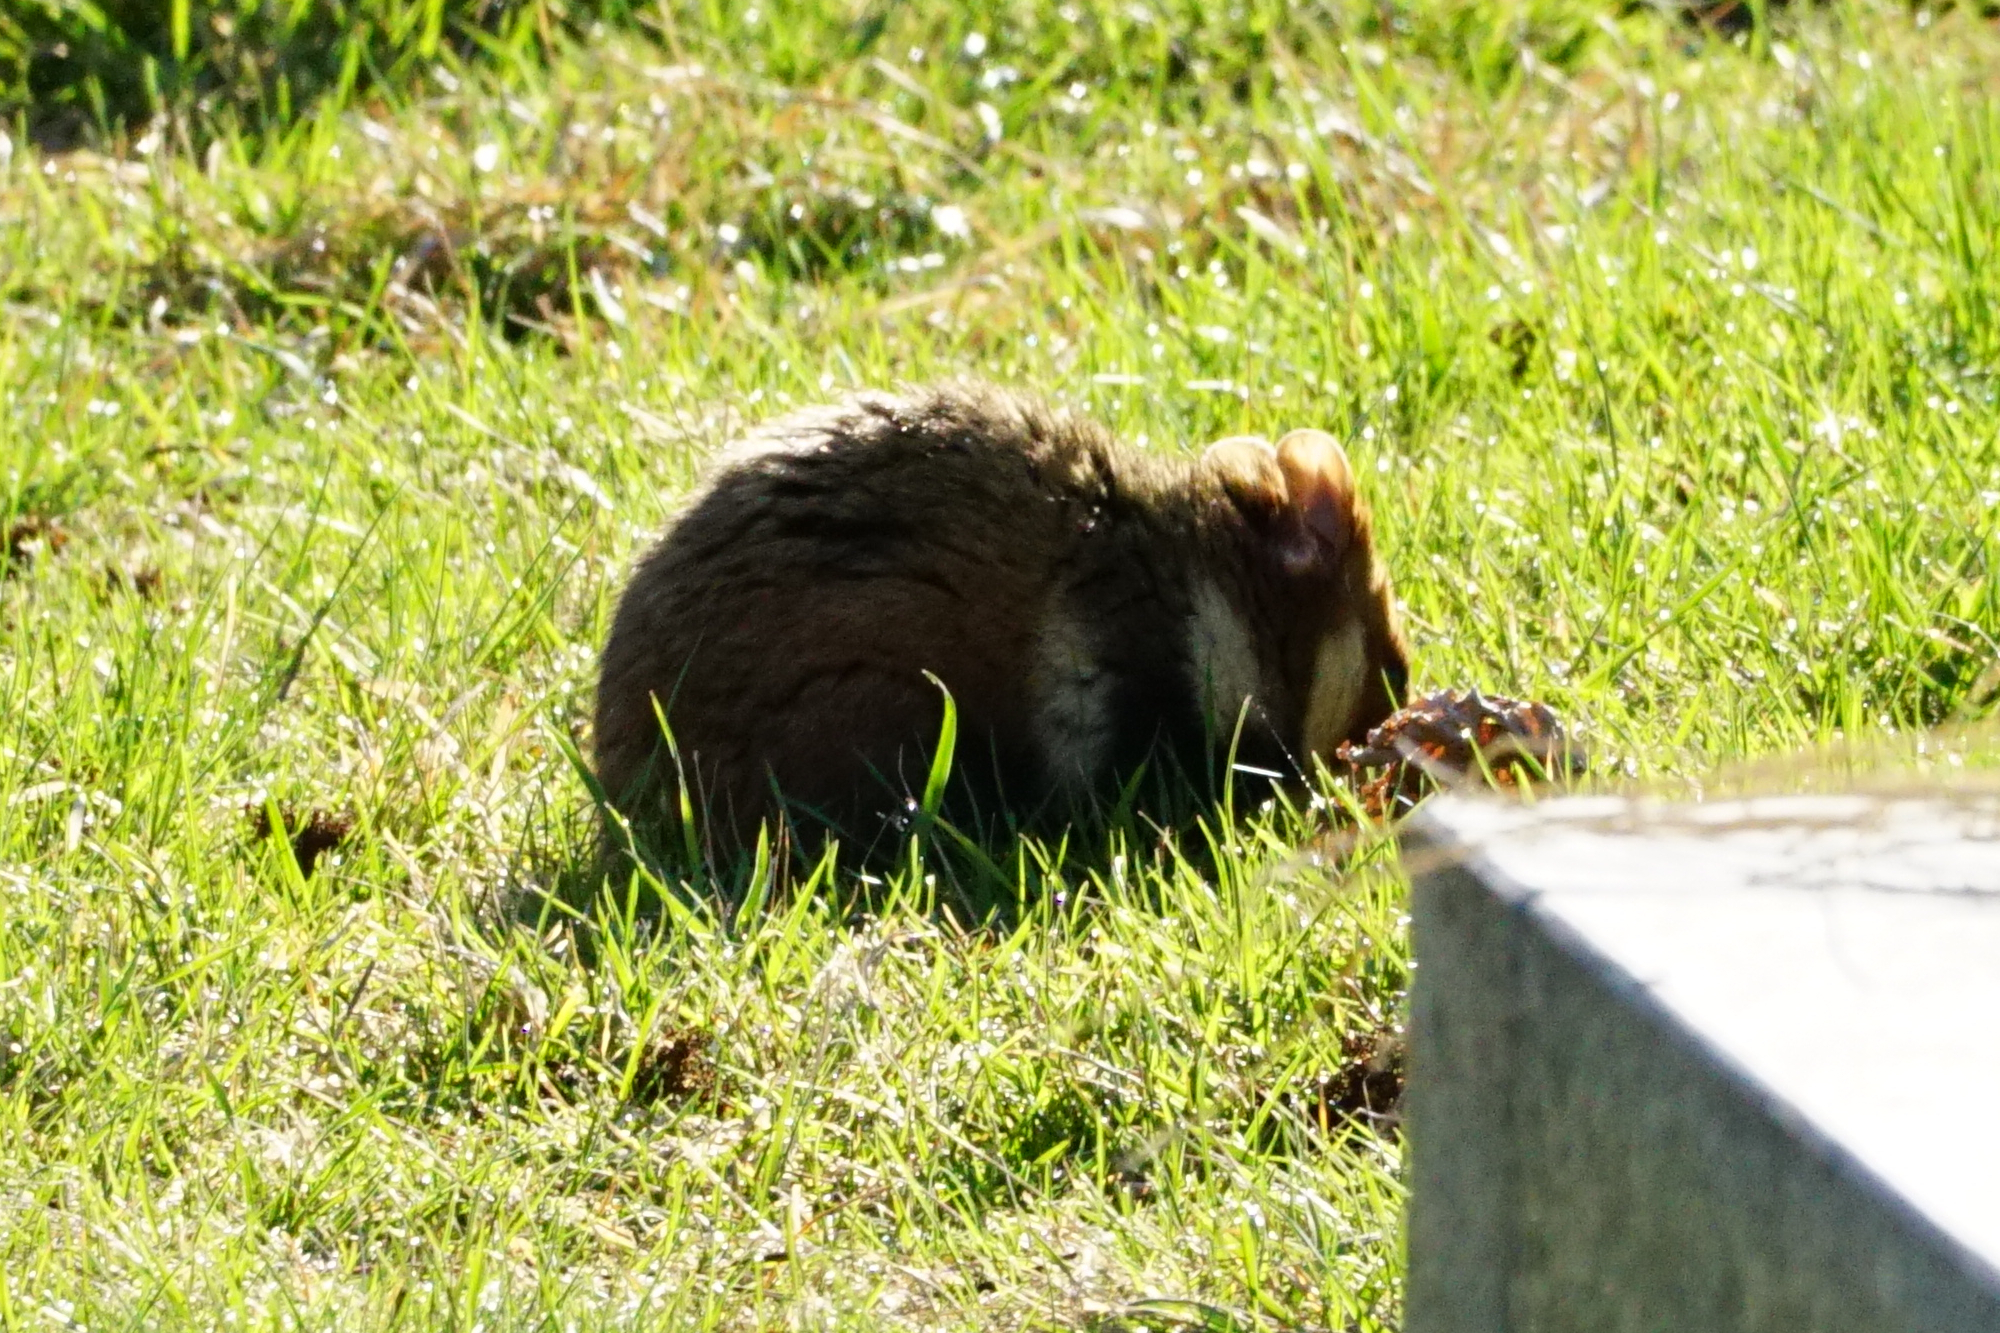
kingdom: Animalia
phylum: Chordata
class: Mammalia
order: Rodentia
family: Cricetidae
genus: Cricetus
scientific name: Cricetus cricetus
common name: Common hamster
